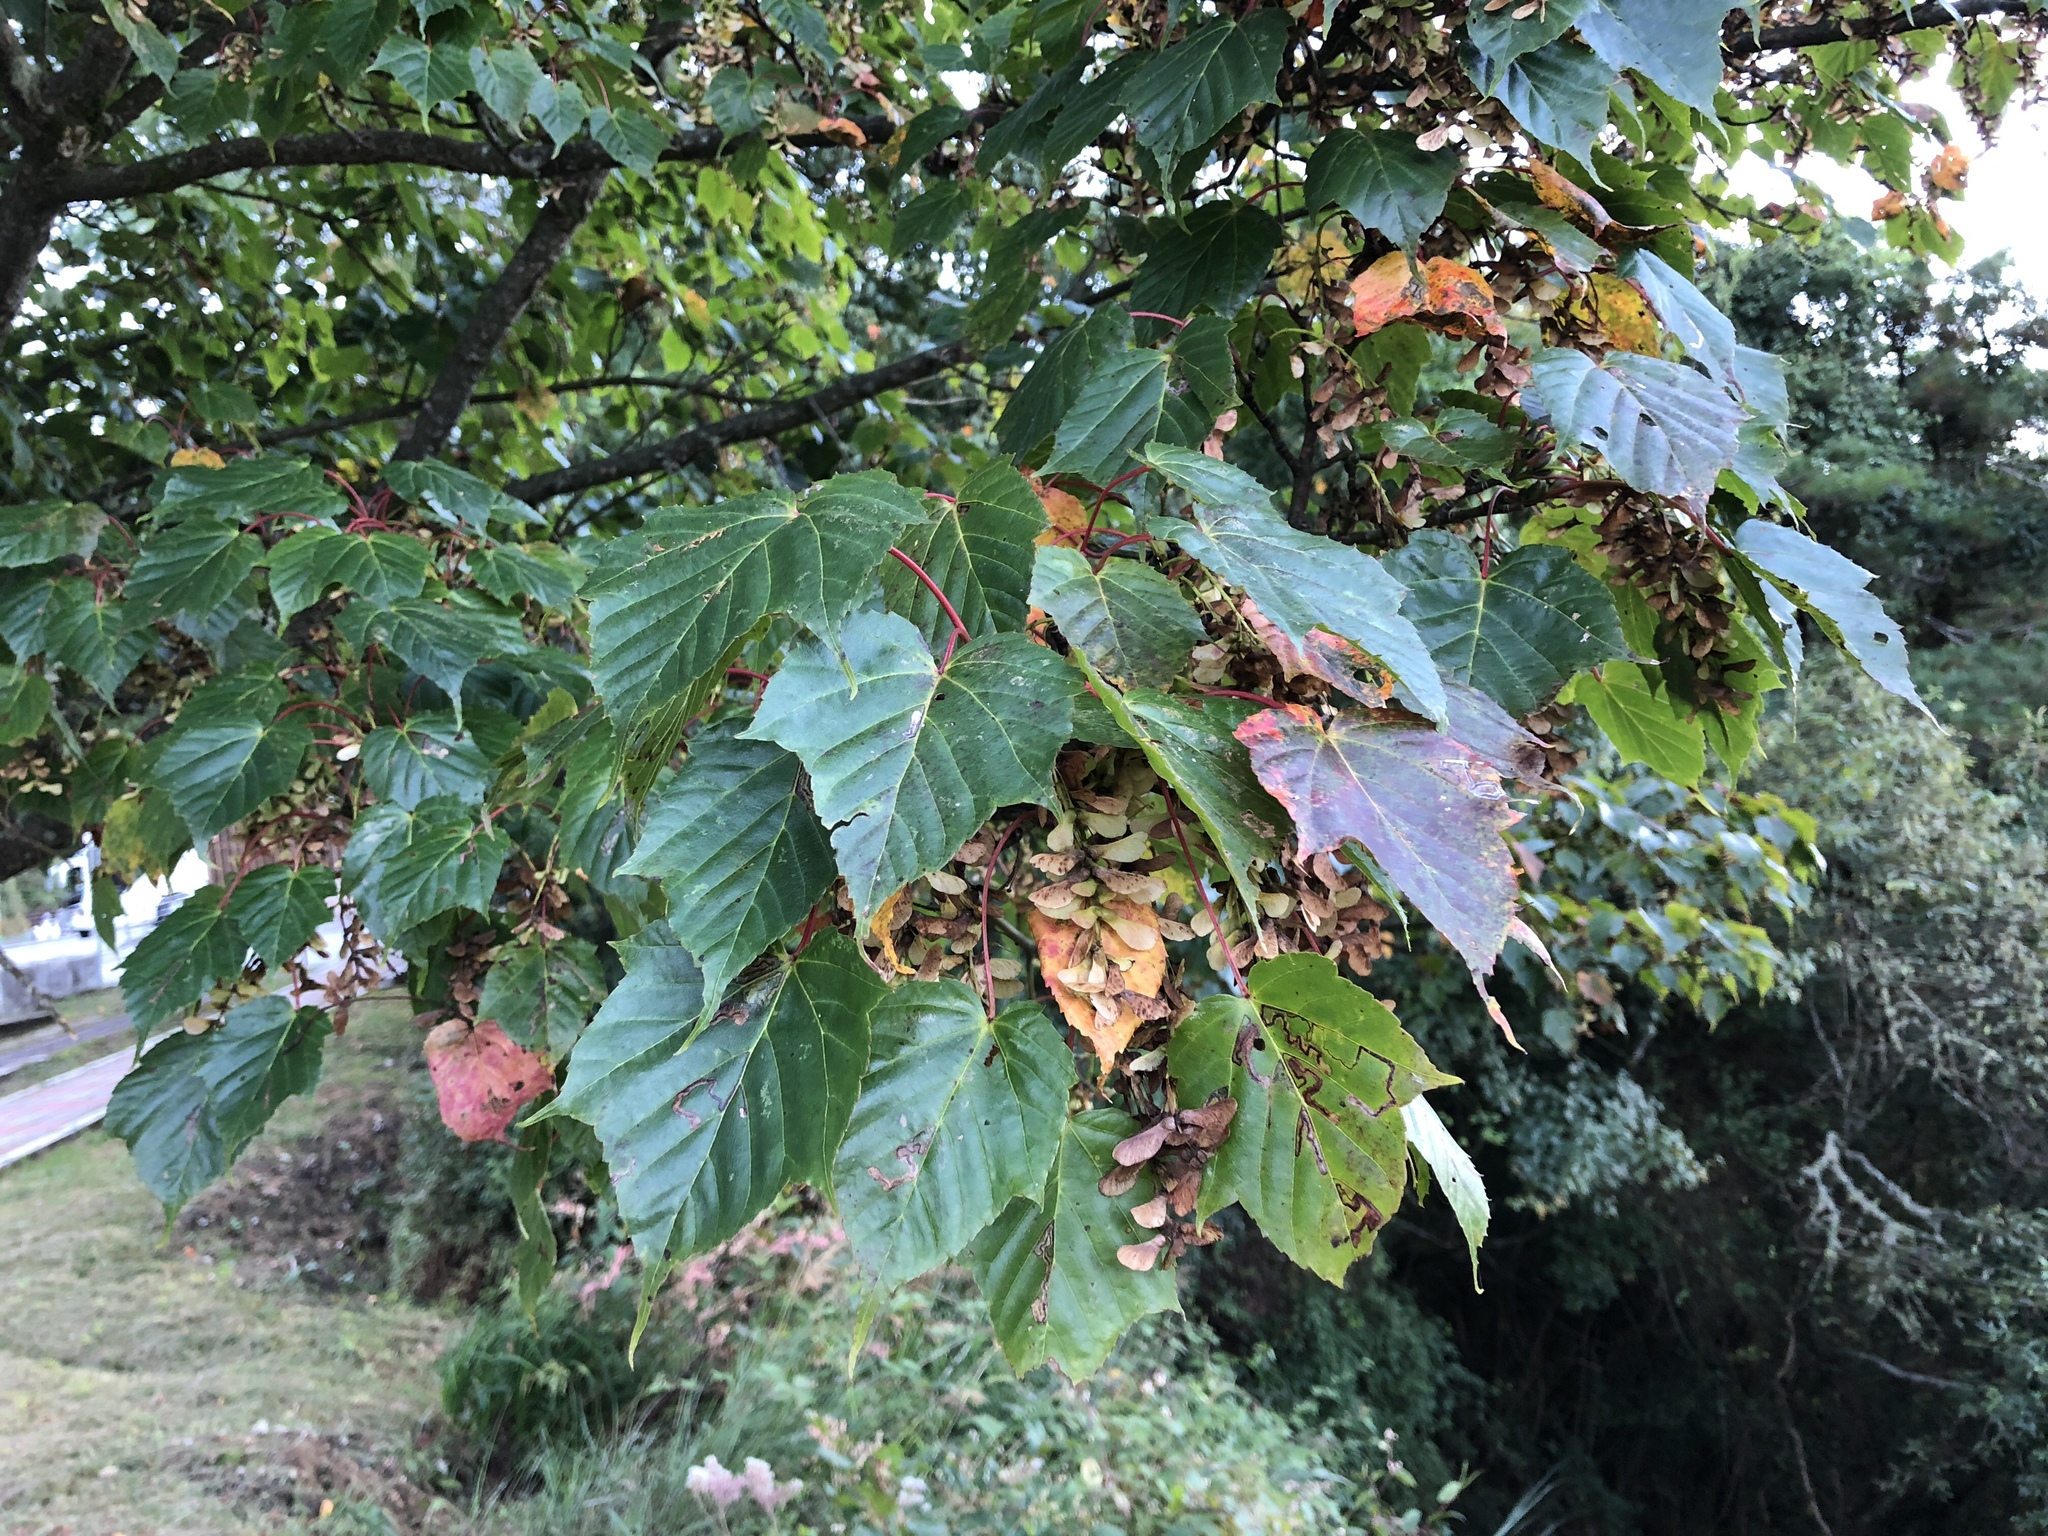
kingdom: Plantae
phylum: Tracheophyta
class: Magnoliopsida
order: Sapindales
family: Sapindaceae
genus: Acer
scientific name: Acer caudatifolium
